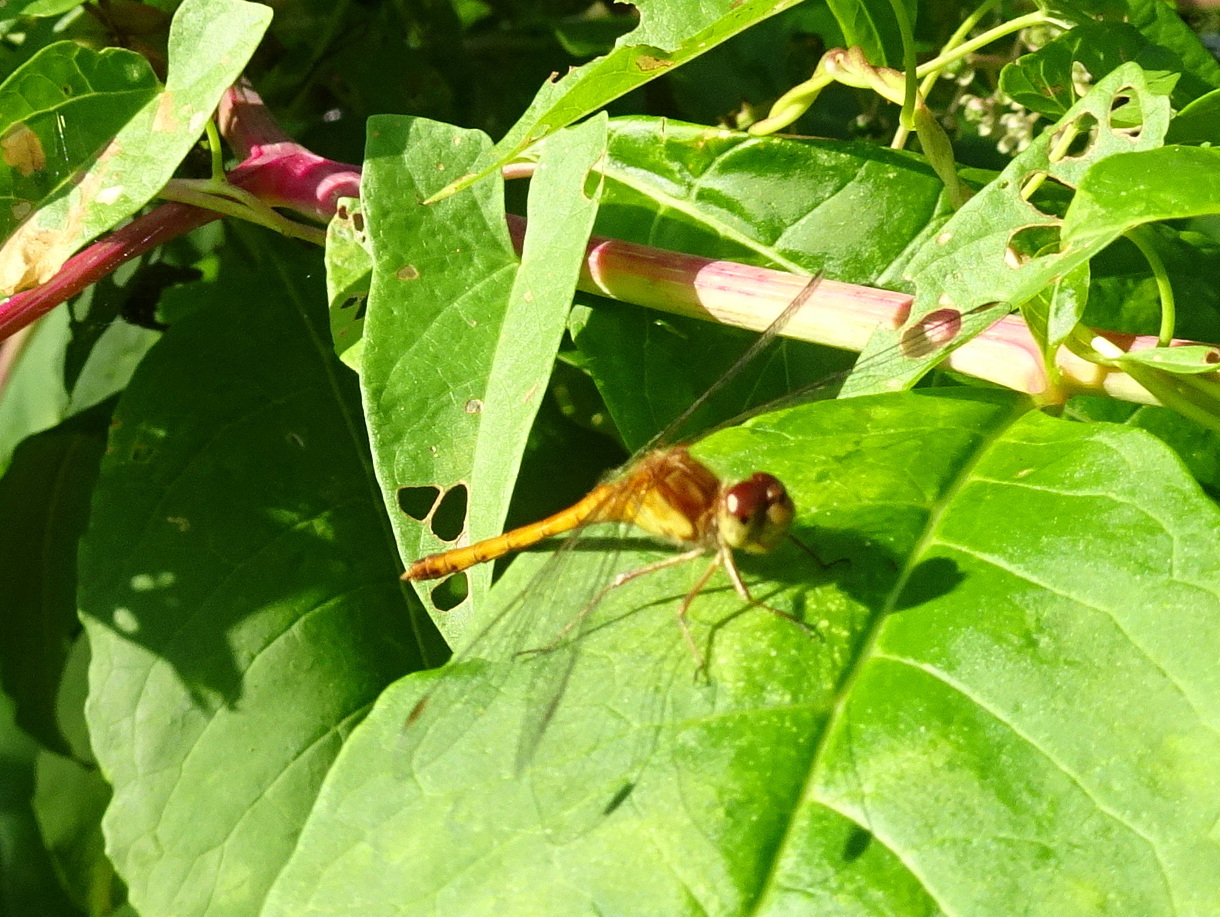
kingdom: Animalia
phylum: Arthropoda
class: Insecta
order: Odonata
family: Libellulidae
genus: Sympetrum
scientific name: Sympetrum vicinum
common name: Autumn meadowhawk
